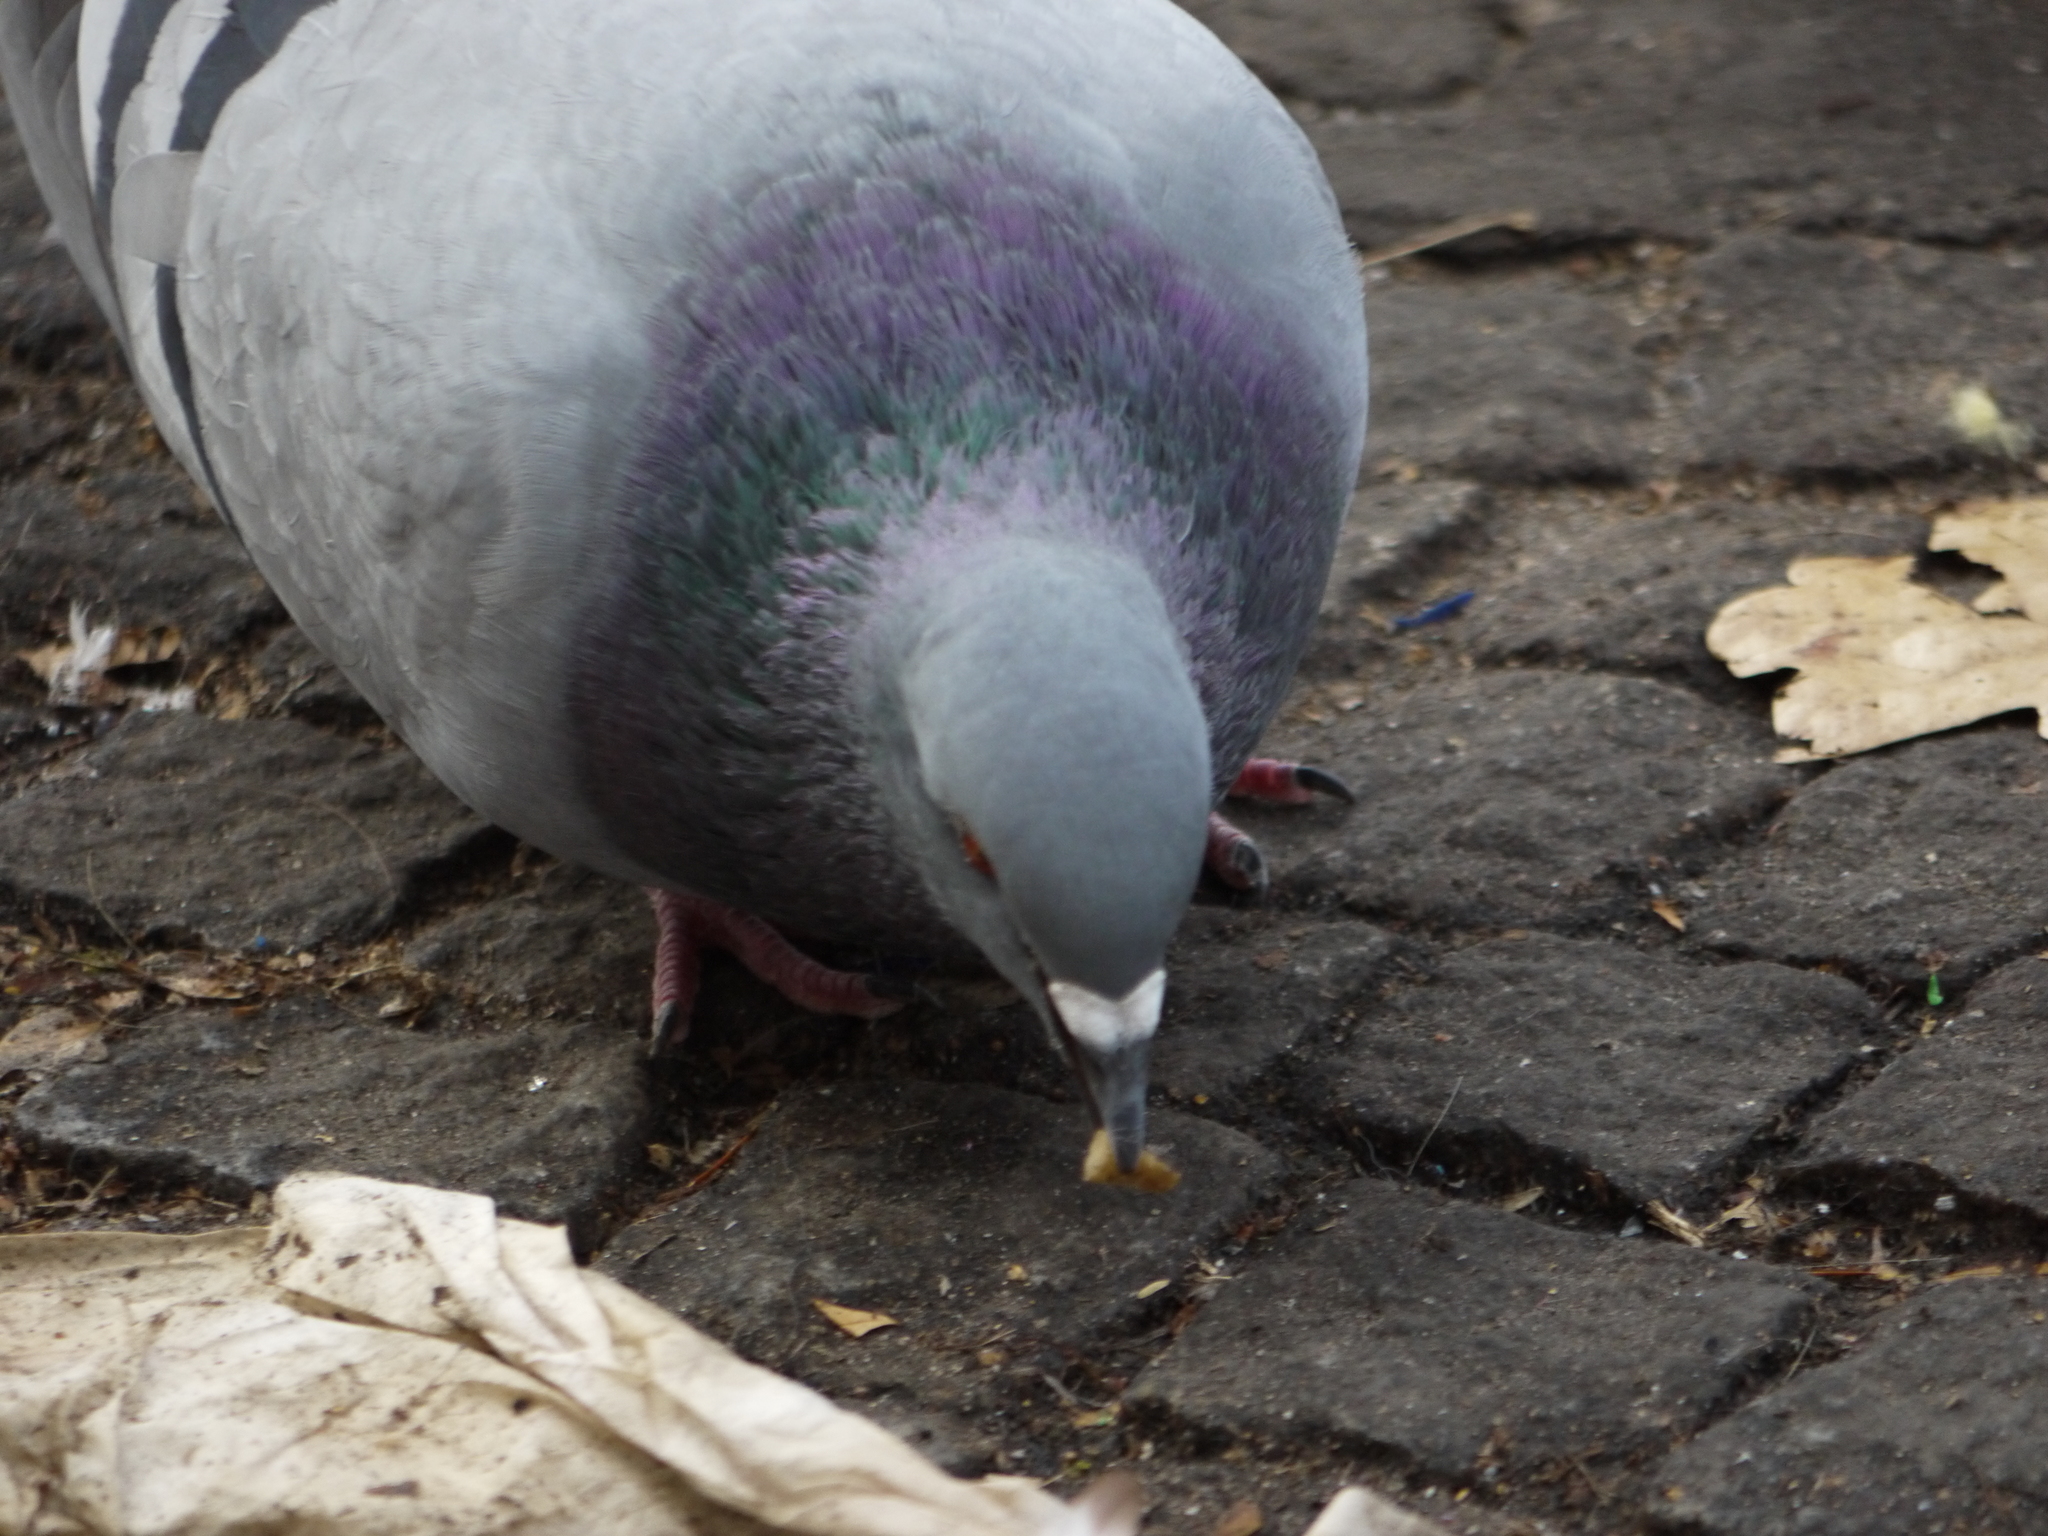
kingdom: Animalia
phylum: Chordata
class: Aves
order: Columbiformes
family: Columbidae
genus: Columba
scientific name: Columba livia
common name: Rock pigeon
